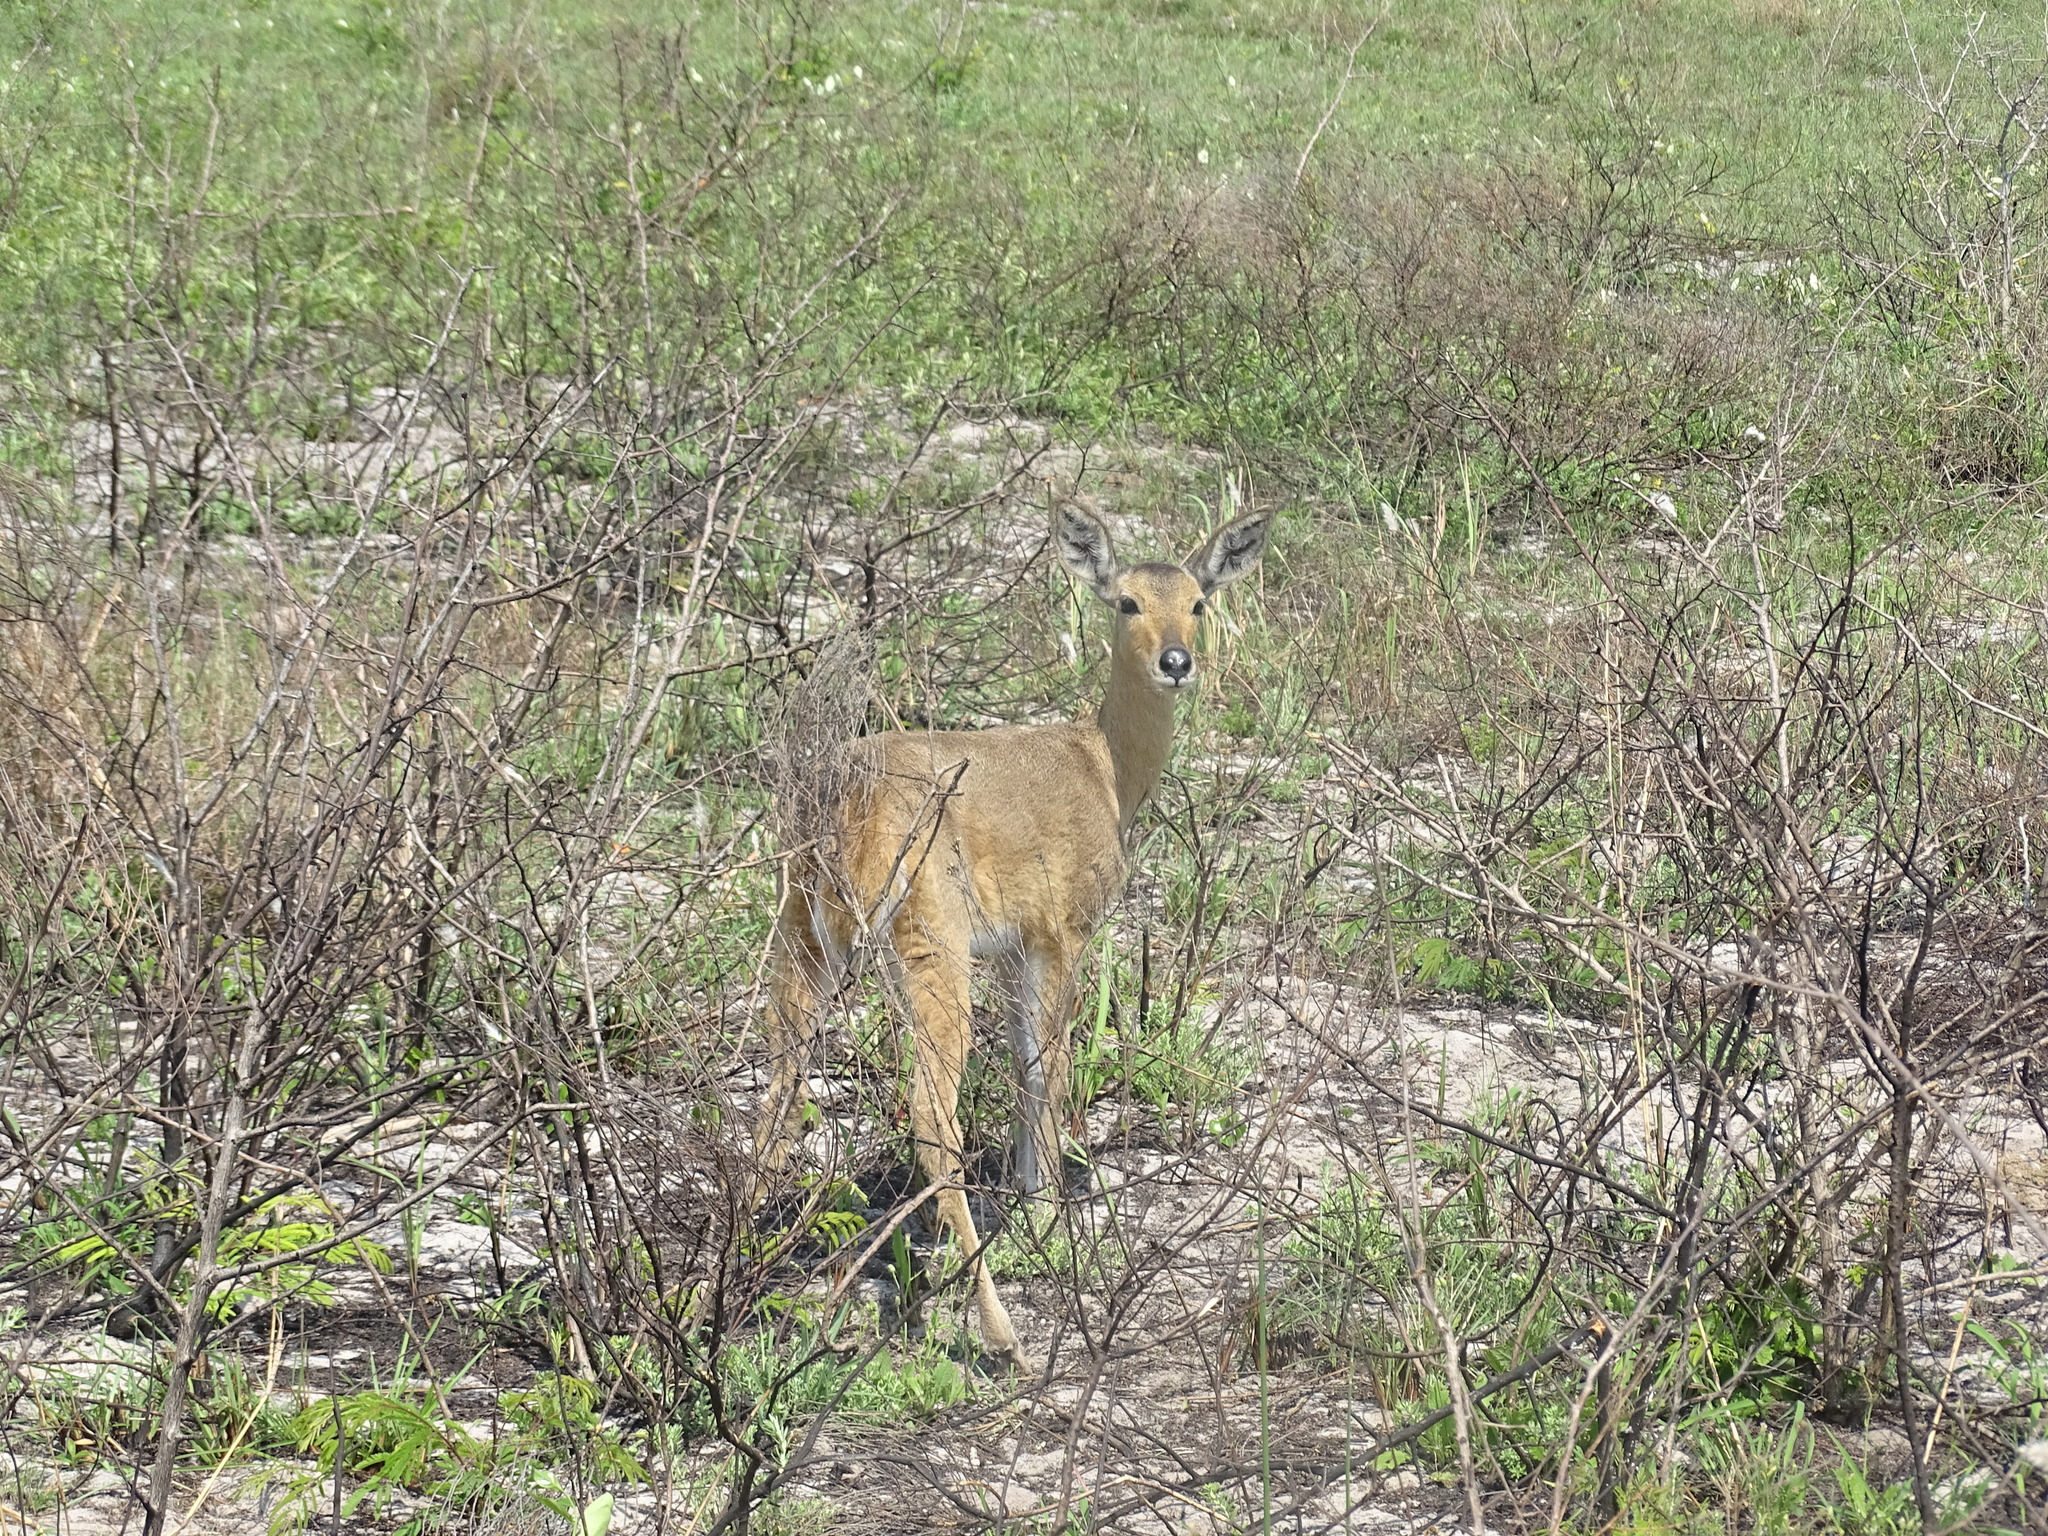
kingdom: Animalia
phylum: Chordata
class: Mammalia
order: Artiodactyla
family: Bovidae
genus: Redunca
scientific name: Redunca arundinum
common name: Southern reedbuck
